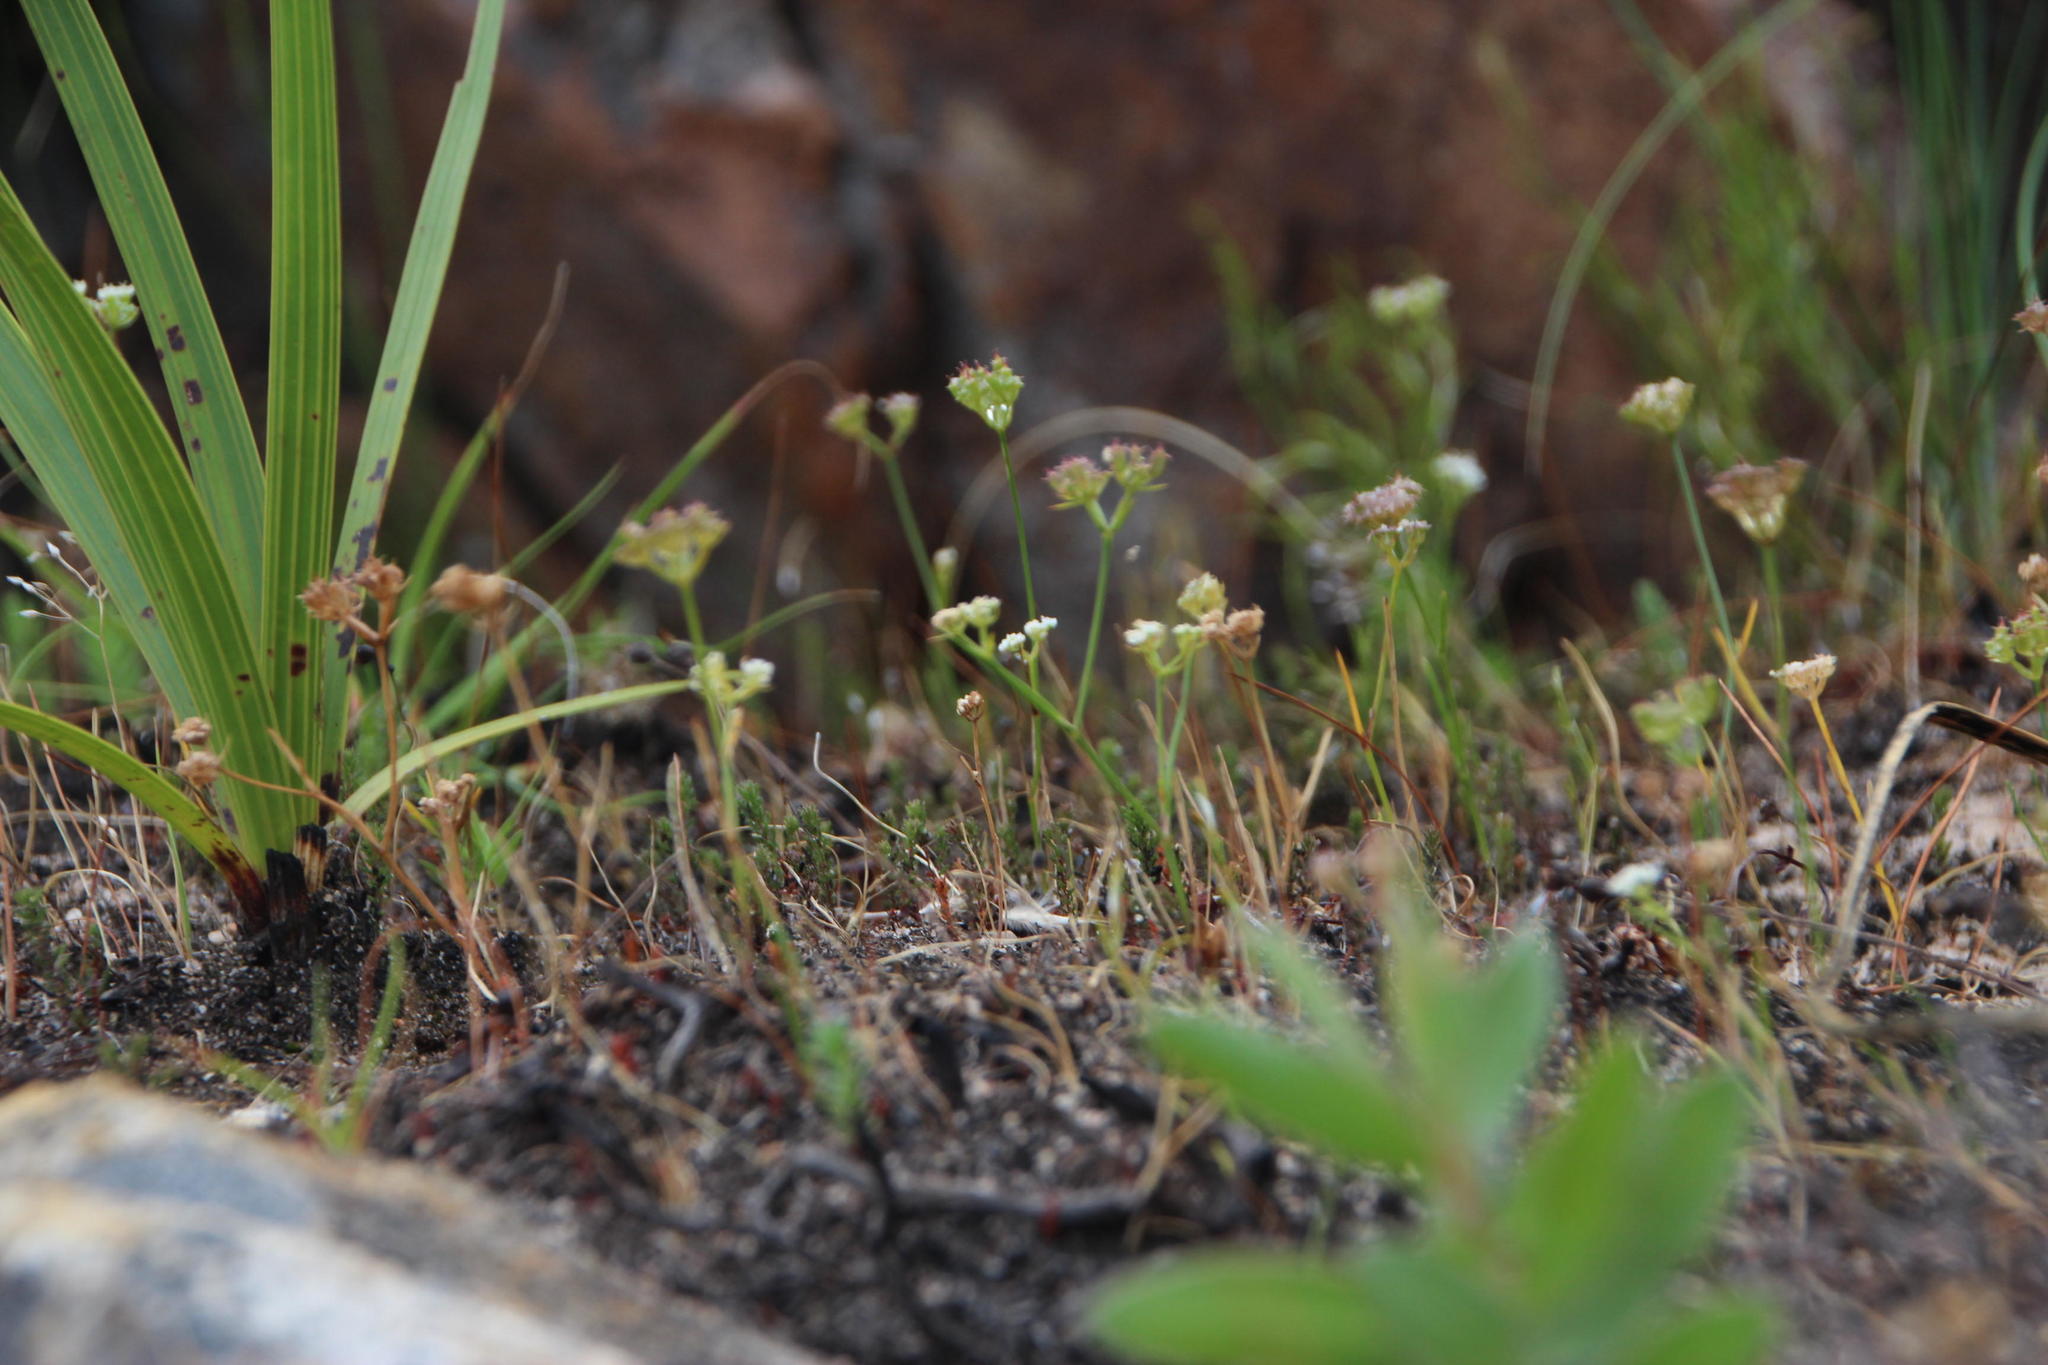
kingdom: Plantae
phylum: Tracheophyta
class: Magnoliopsida
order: Apiales
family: Apiaceae
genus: Itasina
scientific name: Itasina filifolia
